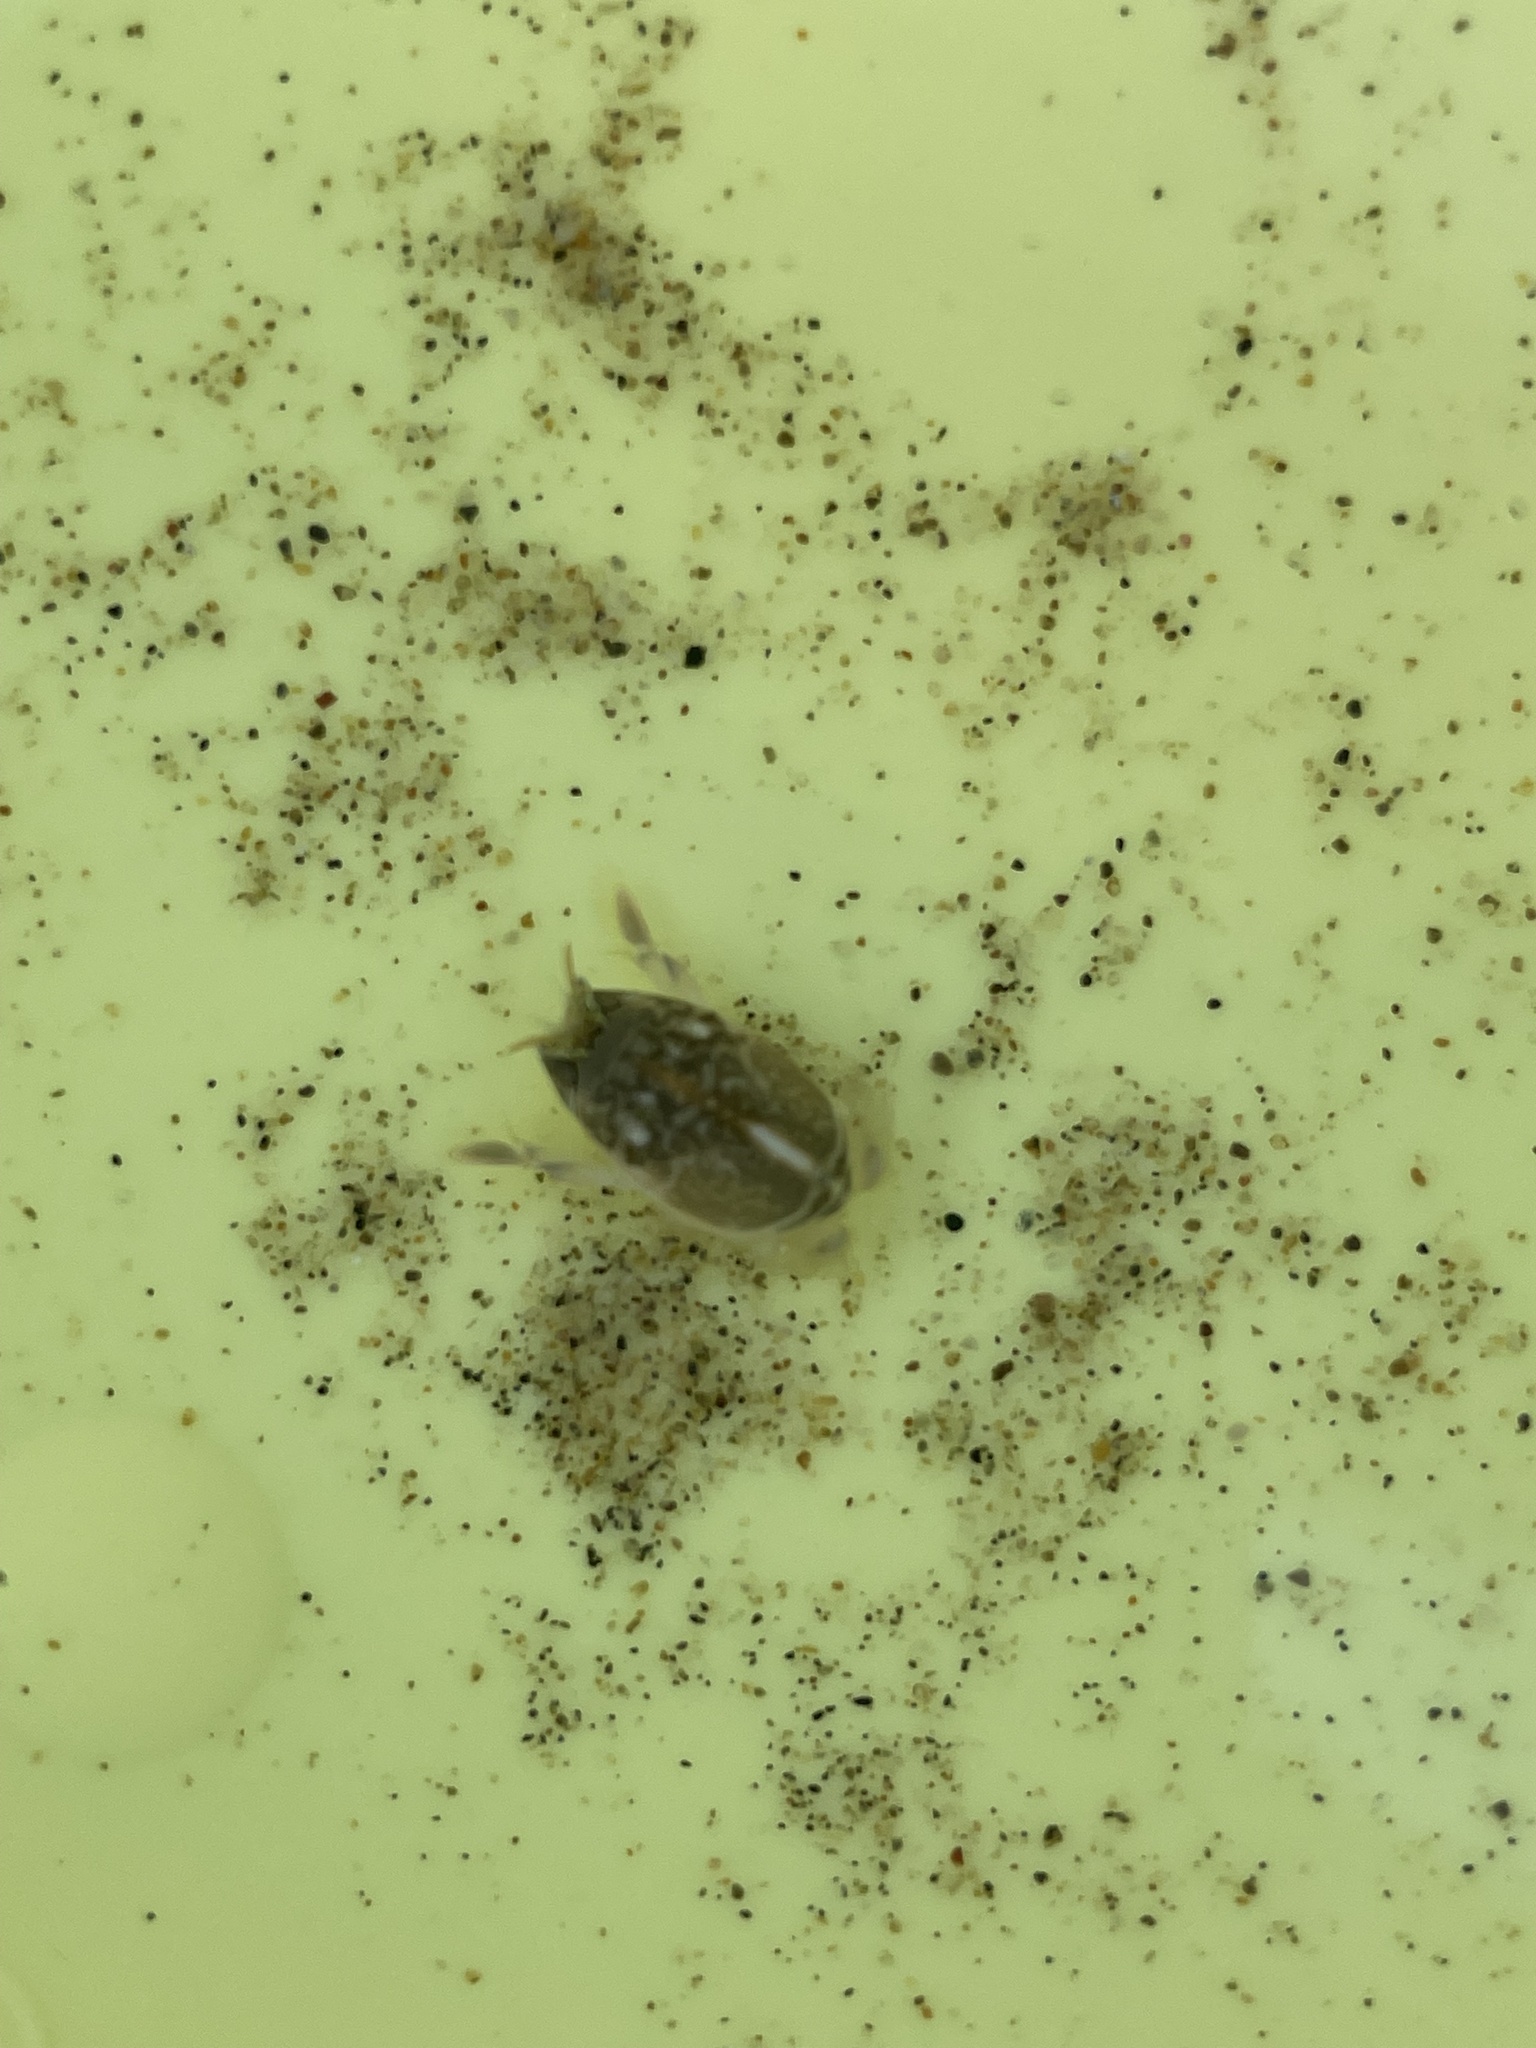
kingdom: Animalia
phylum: Arthropoda
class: Malacostraca
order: Decapoda
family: Hippidae
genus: Emerita
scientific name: Emerita analoga
